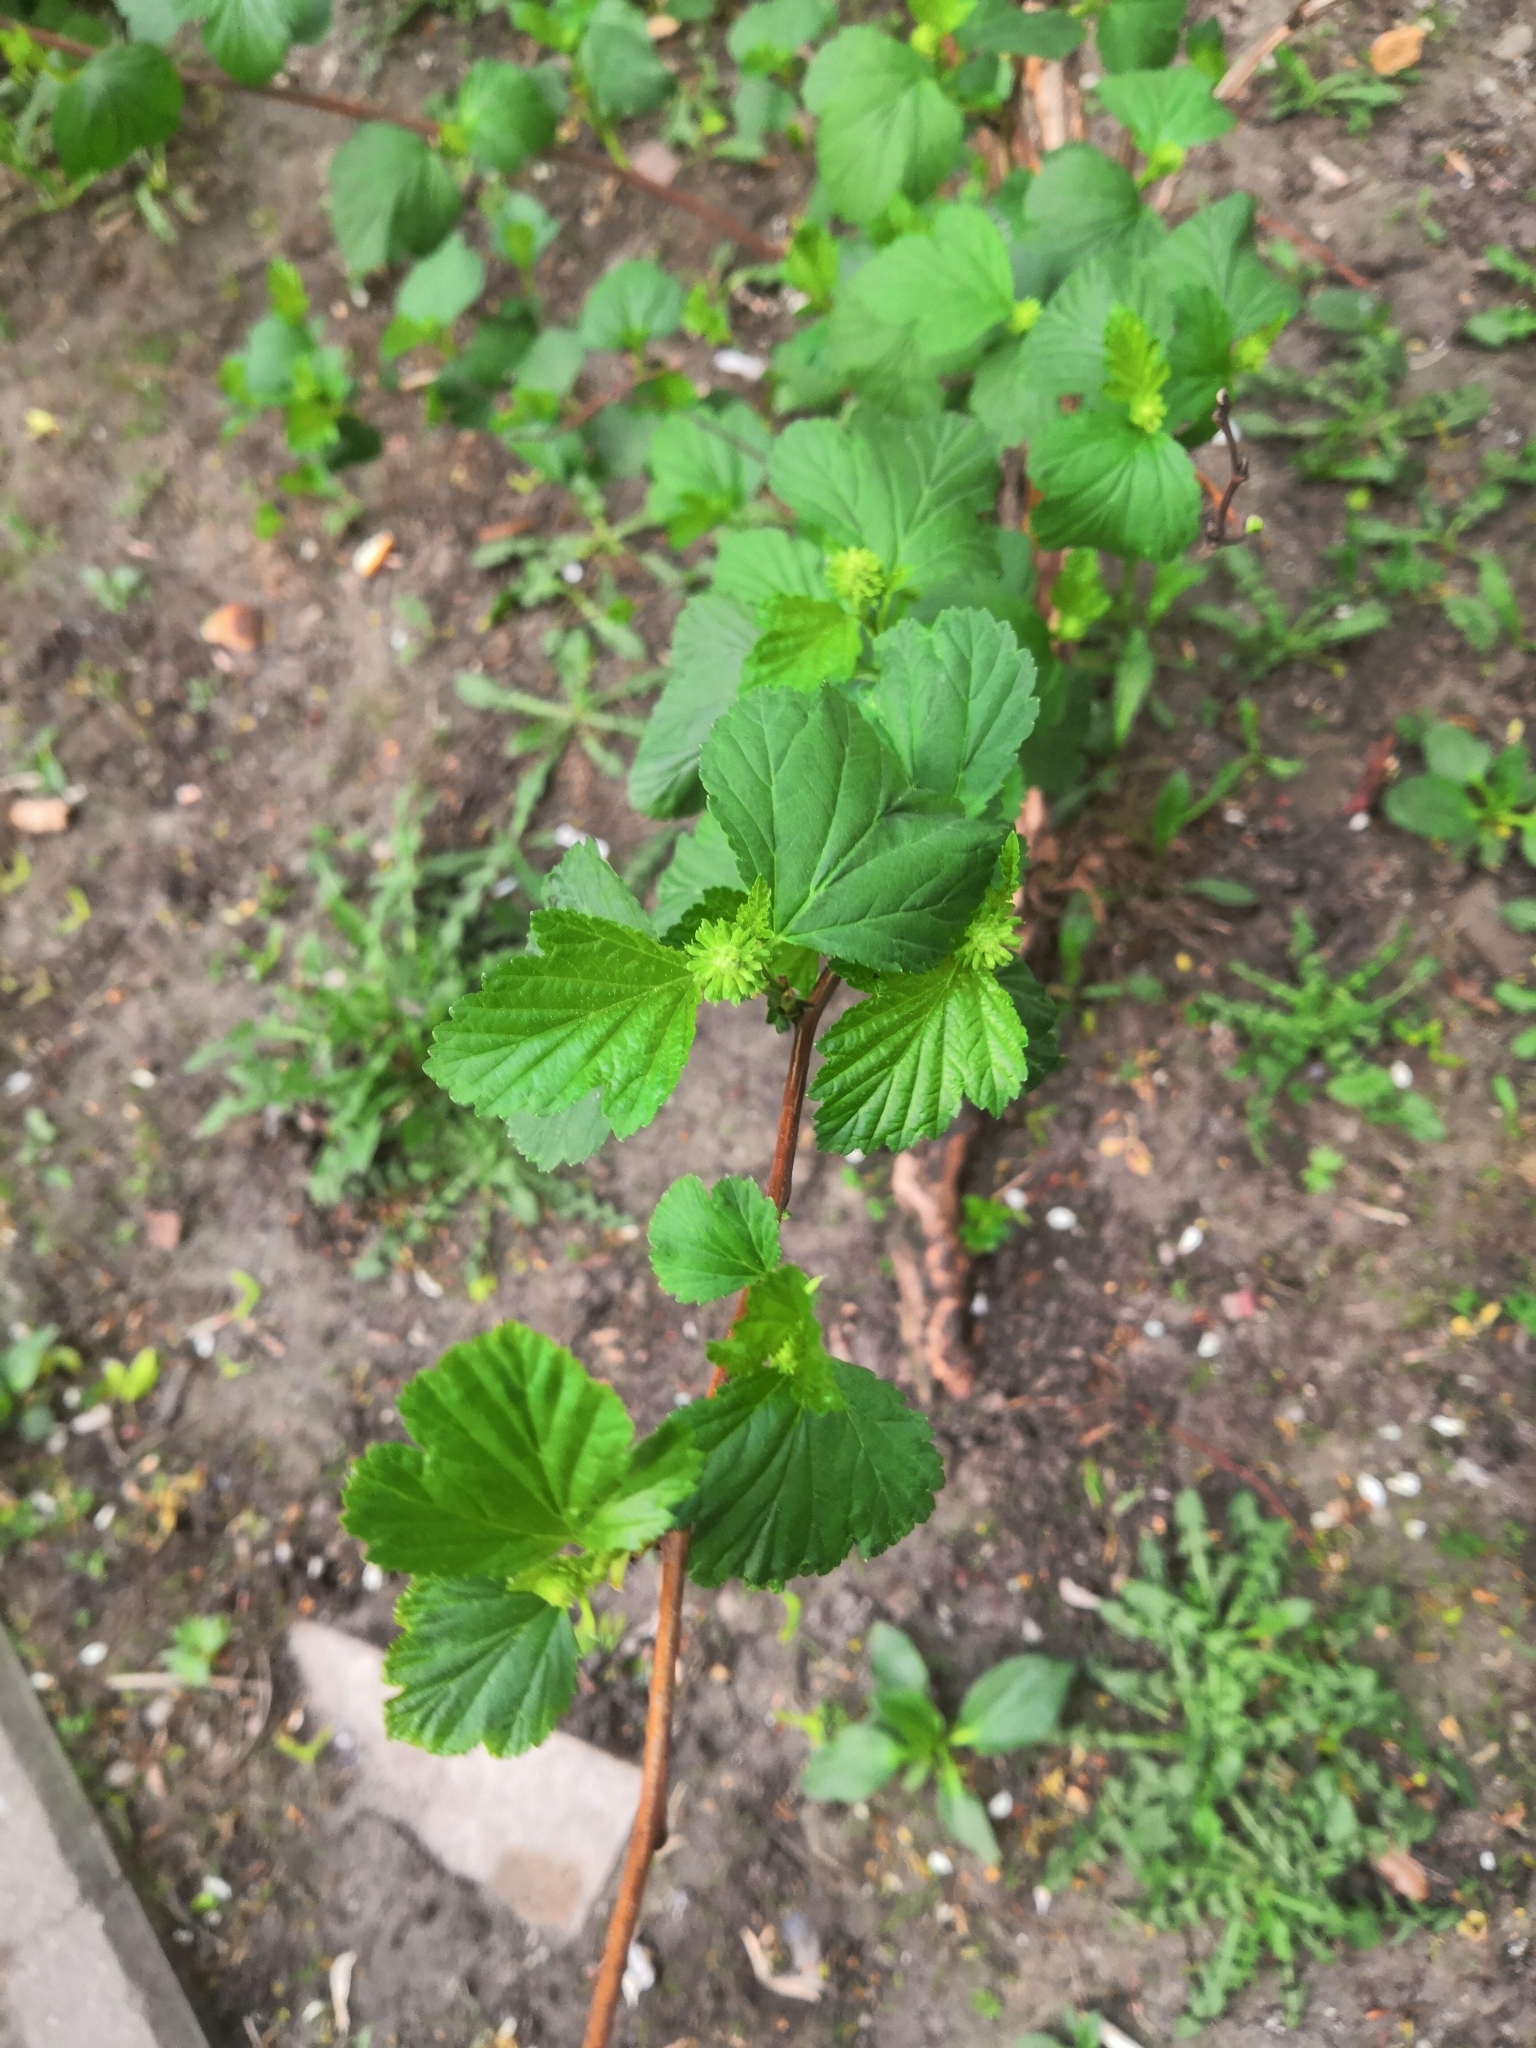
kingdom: Plantae
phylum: Tracheophyta
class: Magnoliopsida
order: Rosales
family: Rosaceae
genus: Physocarpus
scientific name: Physocarpus opulifolius
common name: Ninebark
